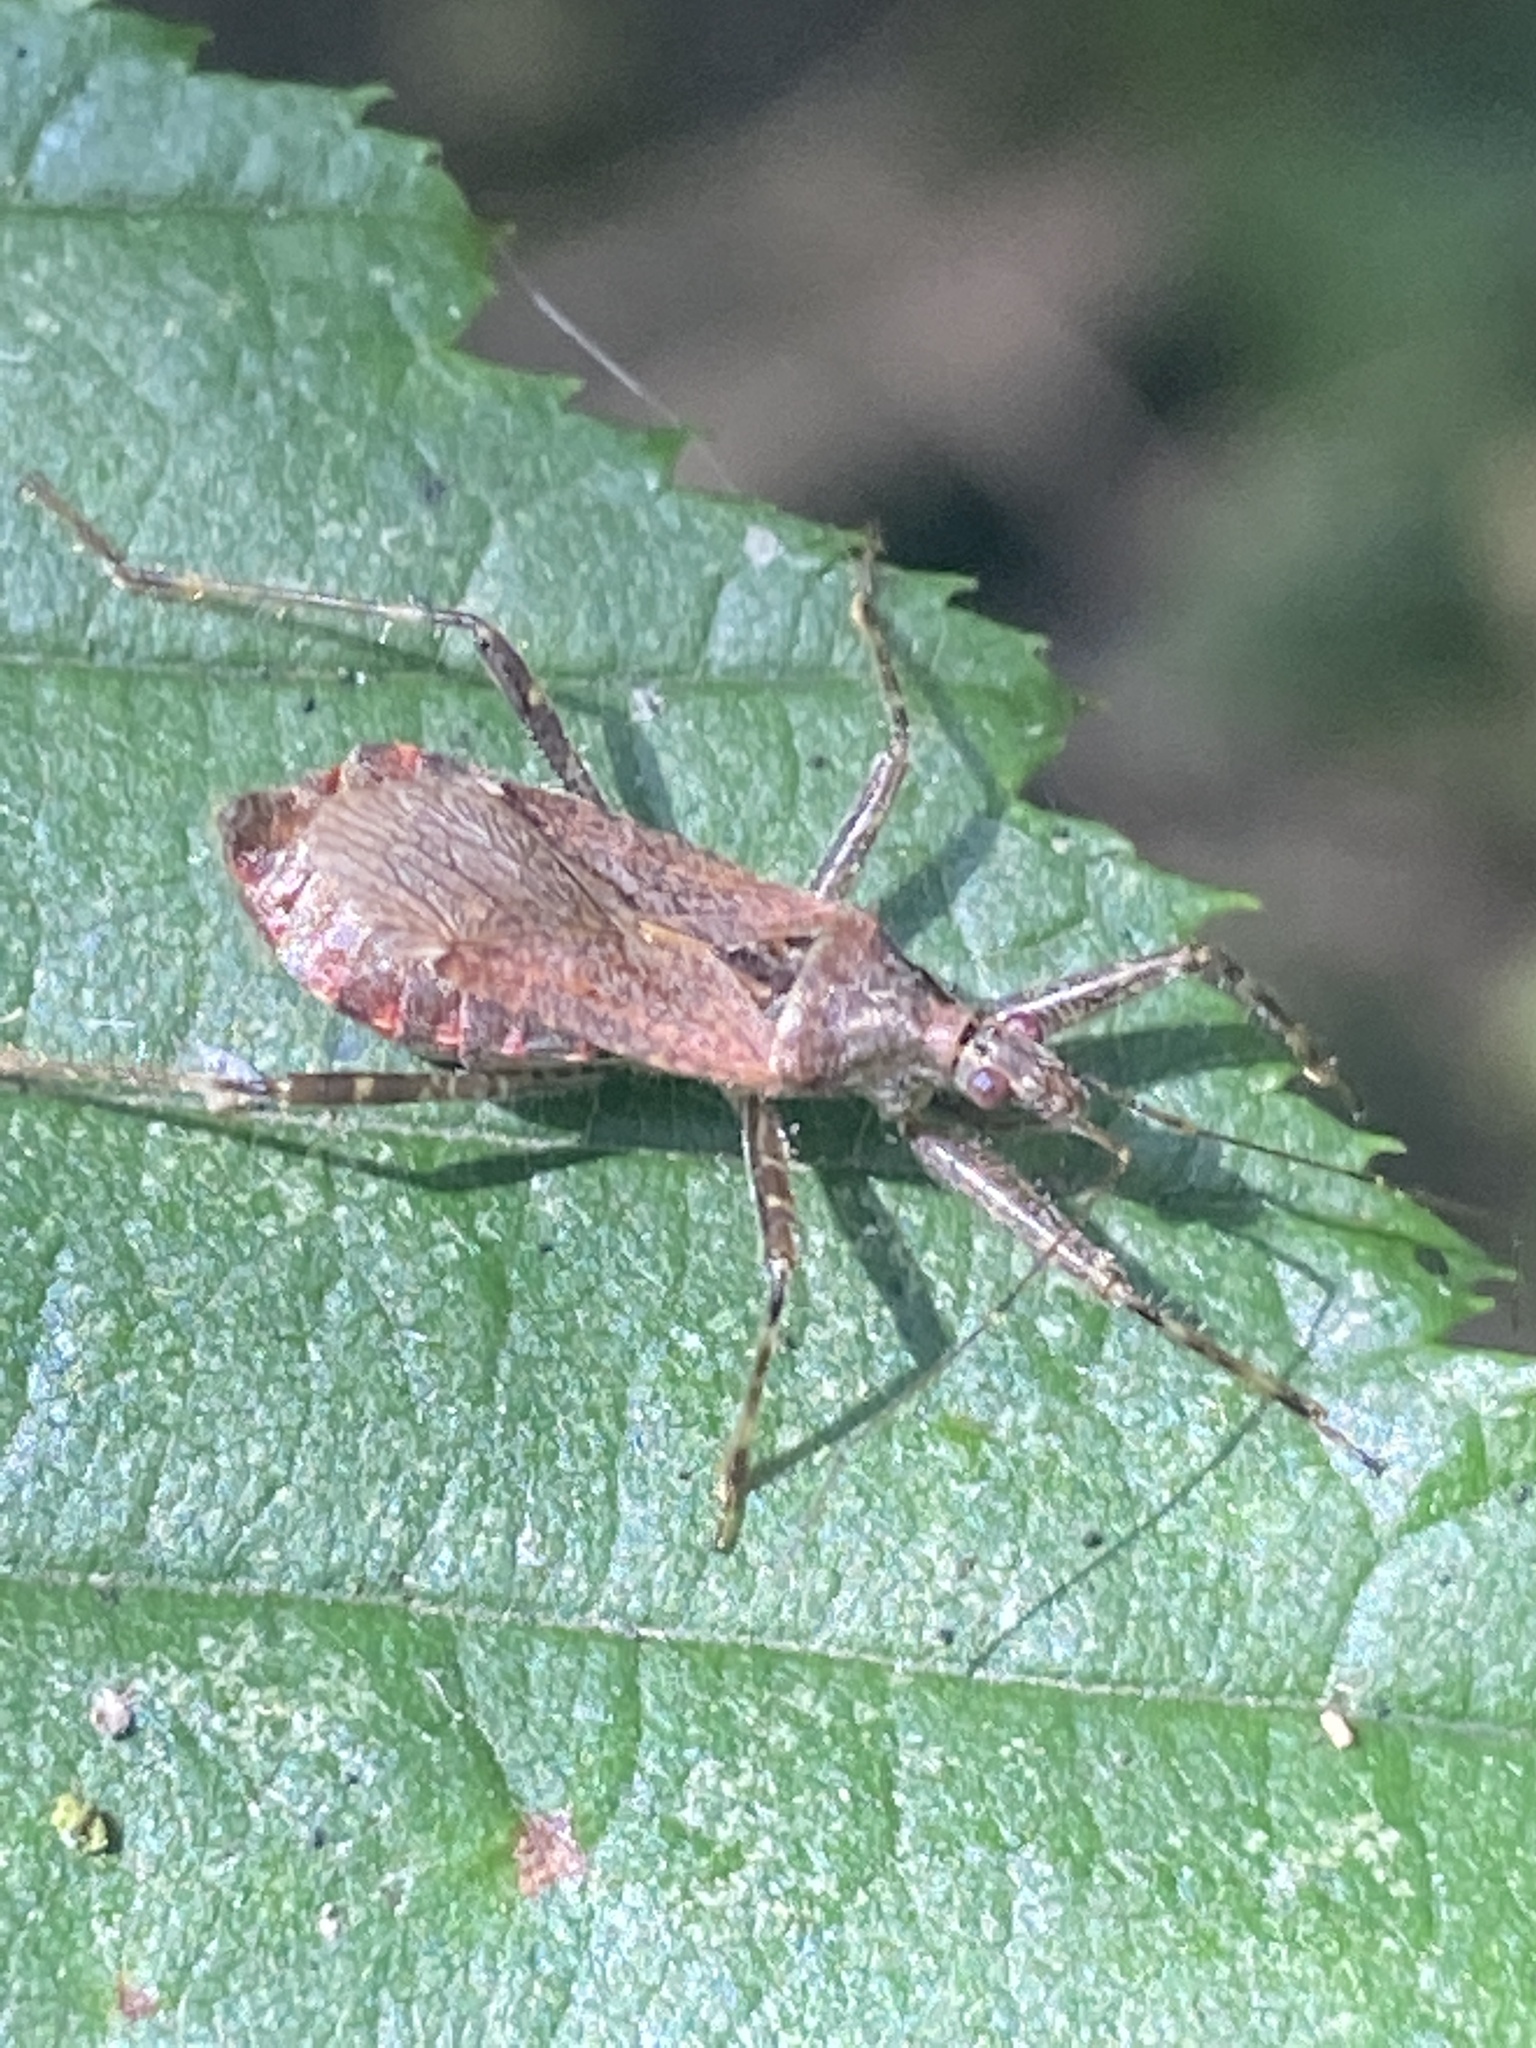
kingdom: Animalia
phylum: Arthropoda
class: Insecta
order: Hemiptera
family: Nabidae
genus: Himacerus
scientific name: Himacerus apterus
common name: Tree damsel bug
